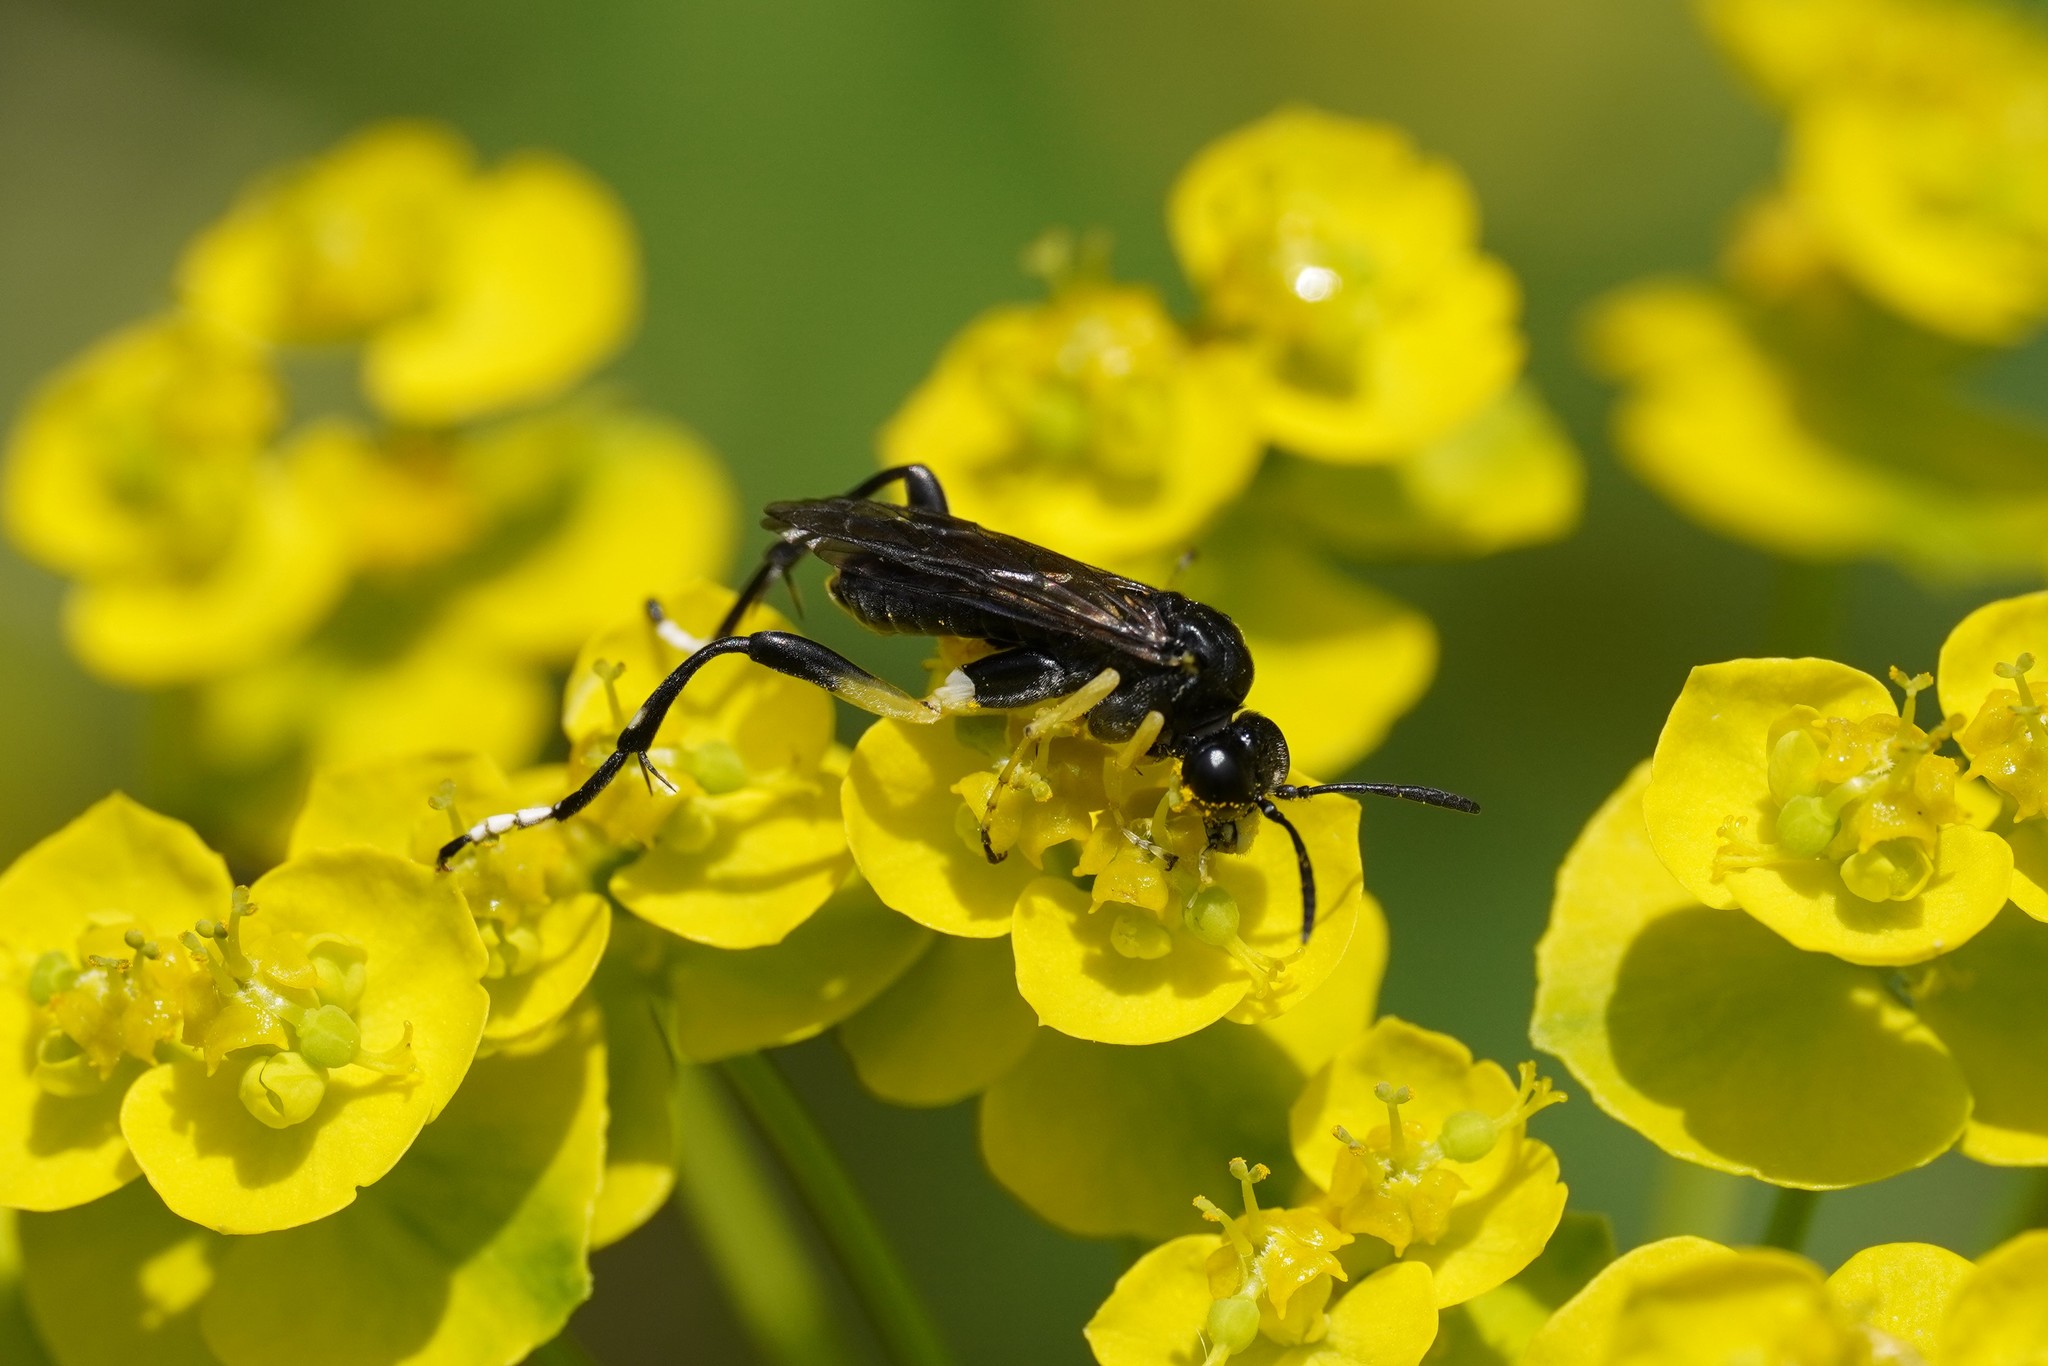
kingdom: Animalia
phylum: Arthropoda
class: Insecta
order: Hymenoptera
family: Tenthredinidae
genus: Macrophya
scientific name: Macrophya montana
